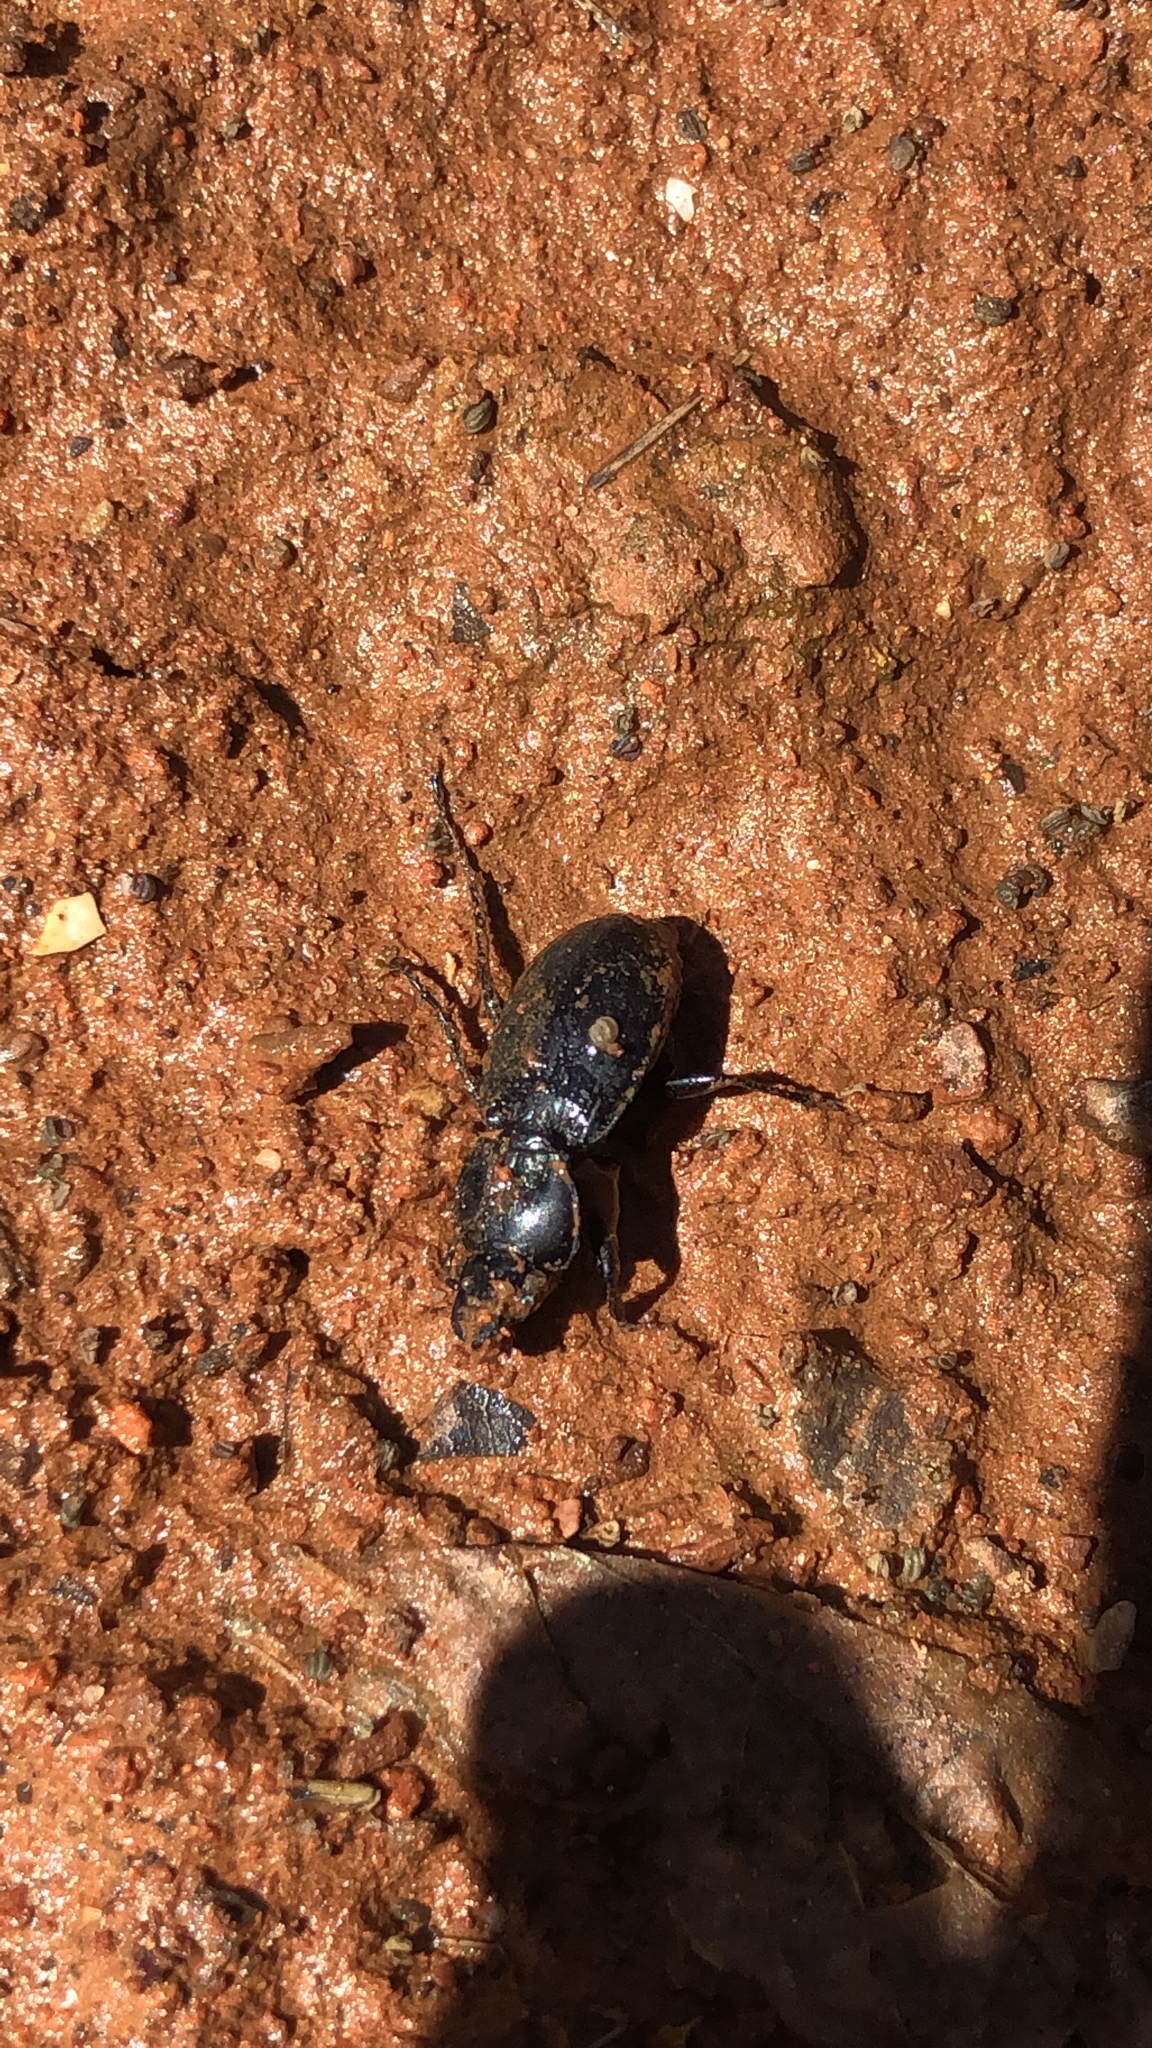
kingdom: Animalia
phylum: Arthropoda
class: Insecta
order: Coleoptera
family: Carabidae
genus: Cyclotrachelus
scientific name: Cyclotrachelus
